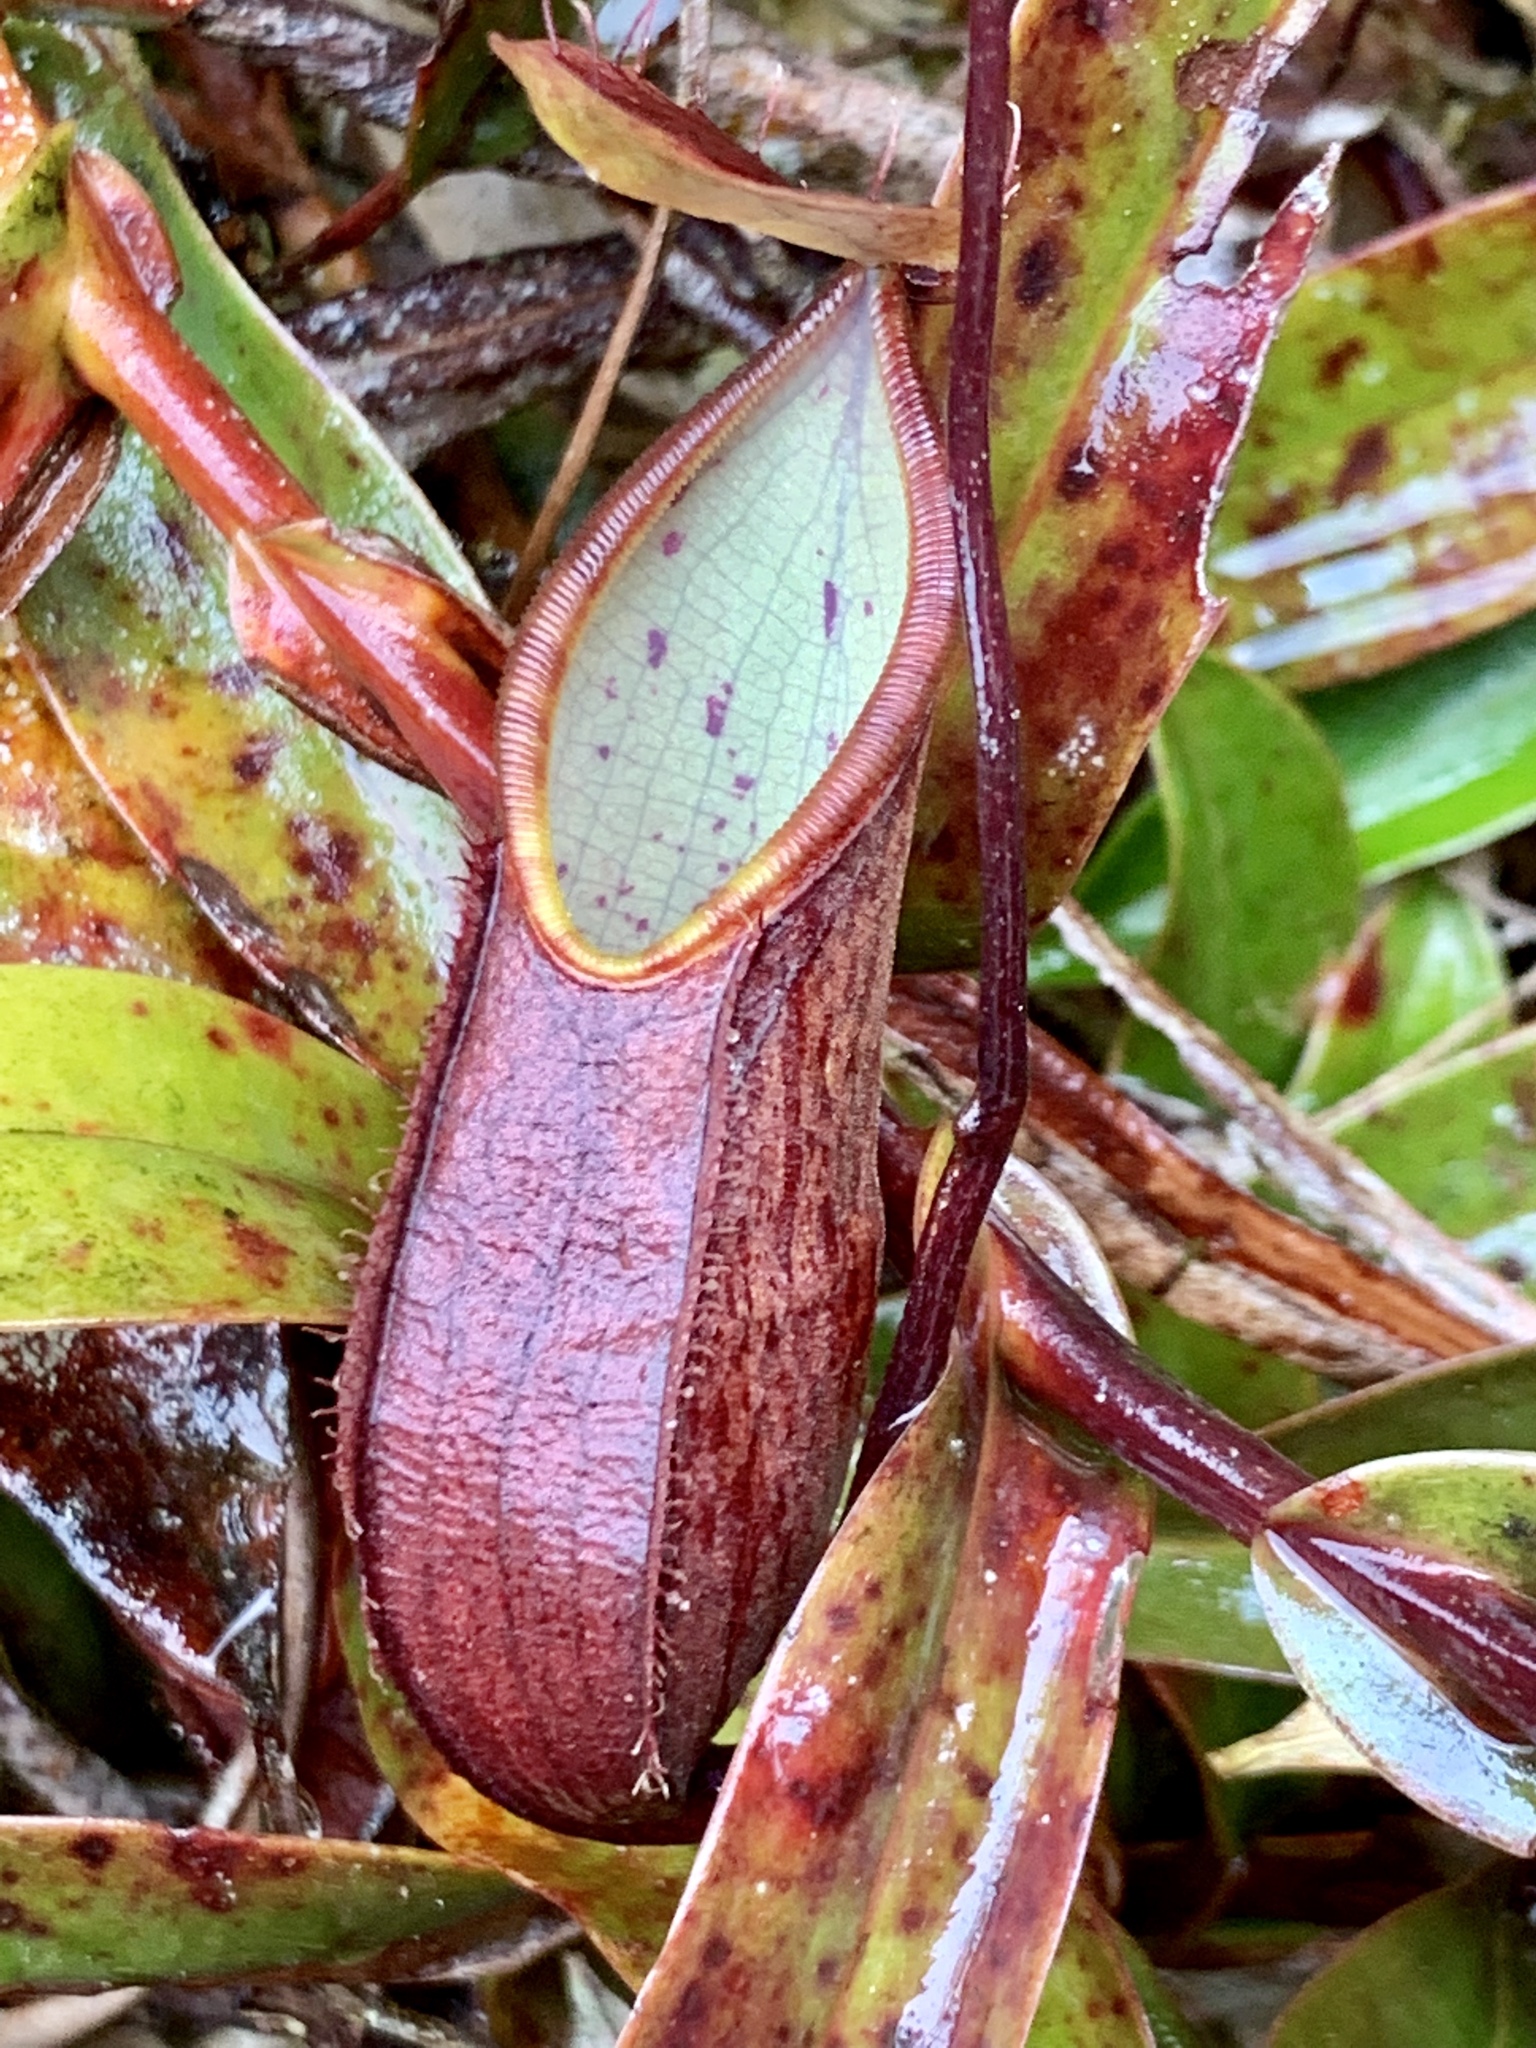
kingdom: Plantae
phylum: Tracheophyta
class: Magnoliopsida
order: Caryophyllales
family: Nepenthaceae
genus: Nepenthes
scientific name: Nepenthes tentaculata
